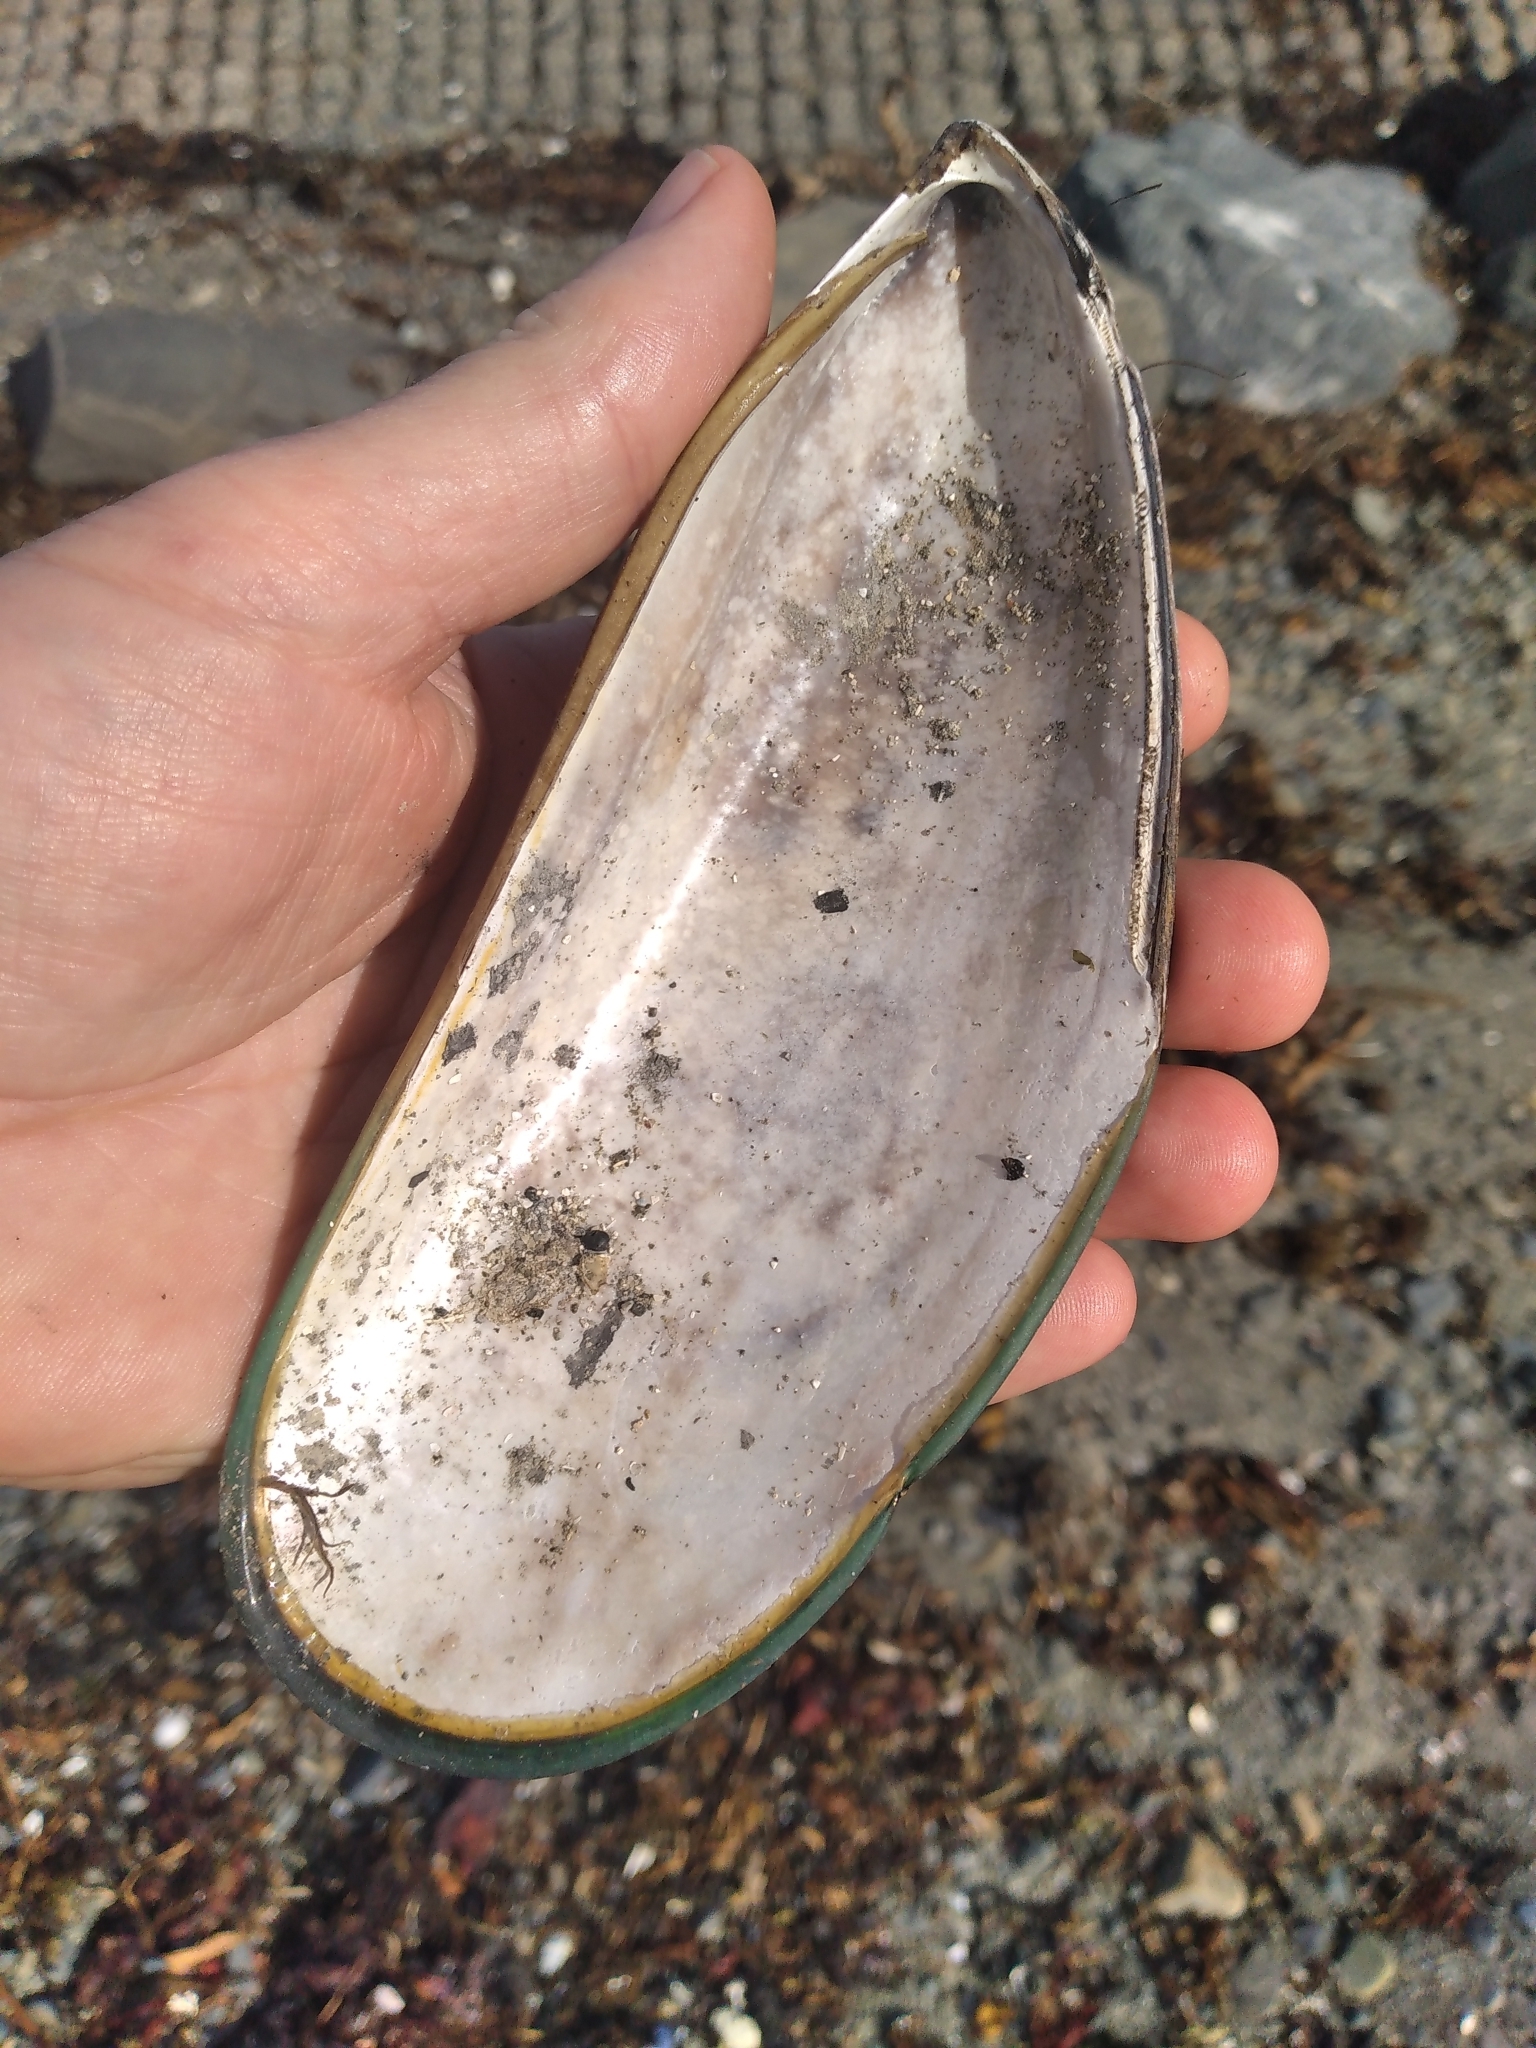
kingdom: Animalia
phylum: Mollusca
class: Bivalvia
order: Mytilida
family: Mytilidae
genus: Perna
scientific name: Perna canaliculus
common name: New zealand greenshelltm
